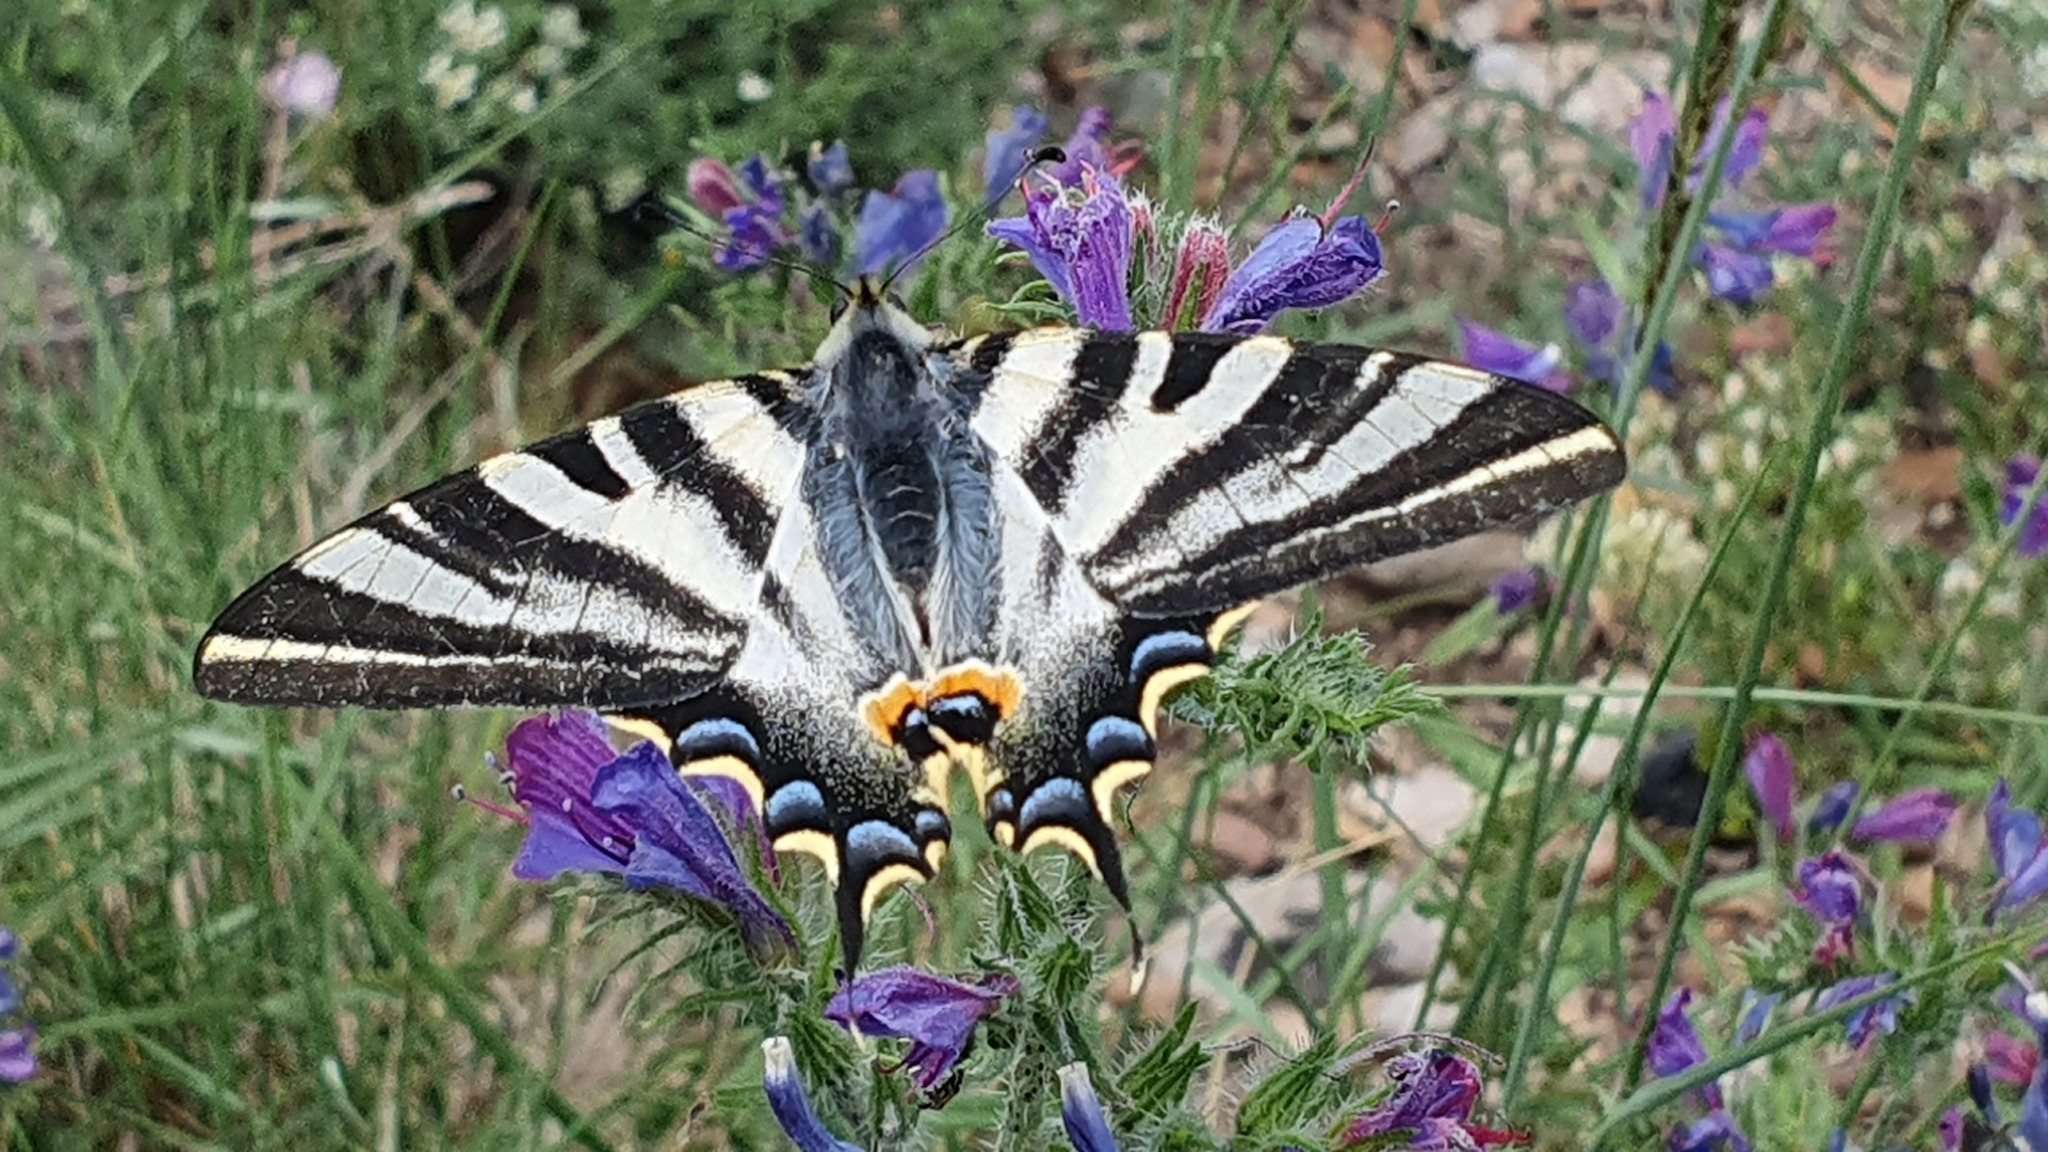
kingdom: Animalia
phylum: Arthropoda
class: Insecta
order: Lepidoptera
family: Papilionidae
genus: Iphiclides
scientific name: Iphiclides feisthamelii
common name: Iberian scarce swallowtail
